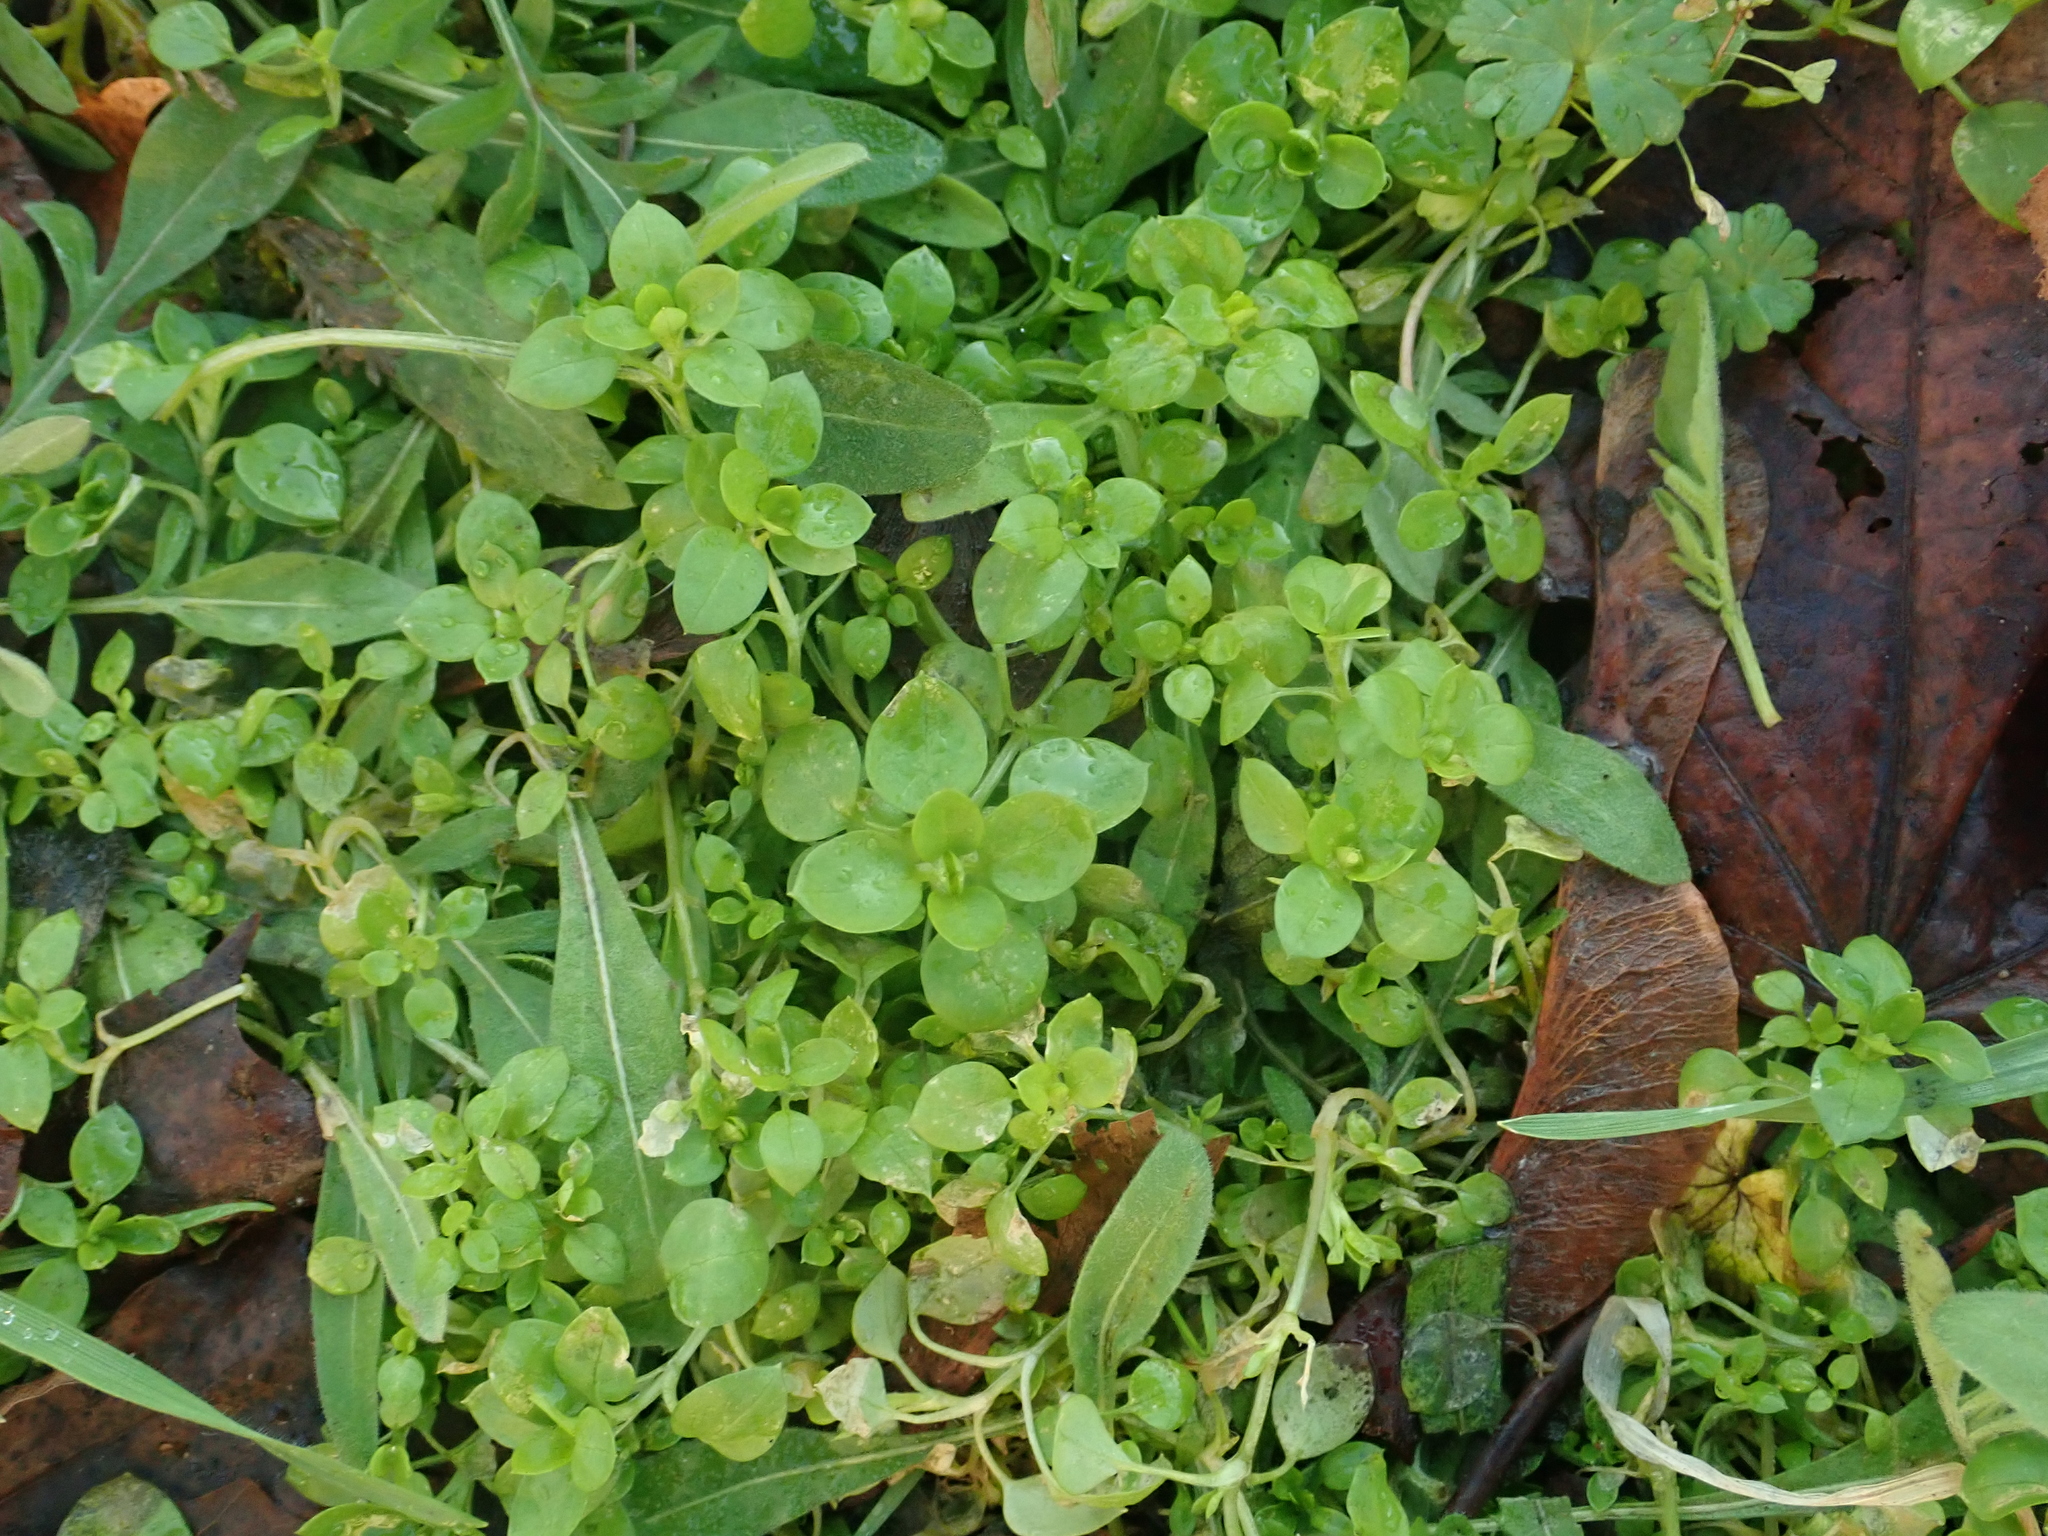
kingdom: Plantae
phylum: Tracheophyta
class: Magnoliopsida
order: Caryophyllales
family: Caryophyllaceae
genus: Stellaria
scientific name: Stellaria media
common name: Common chickweed
